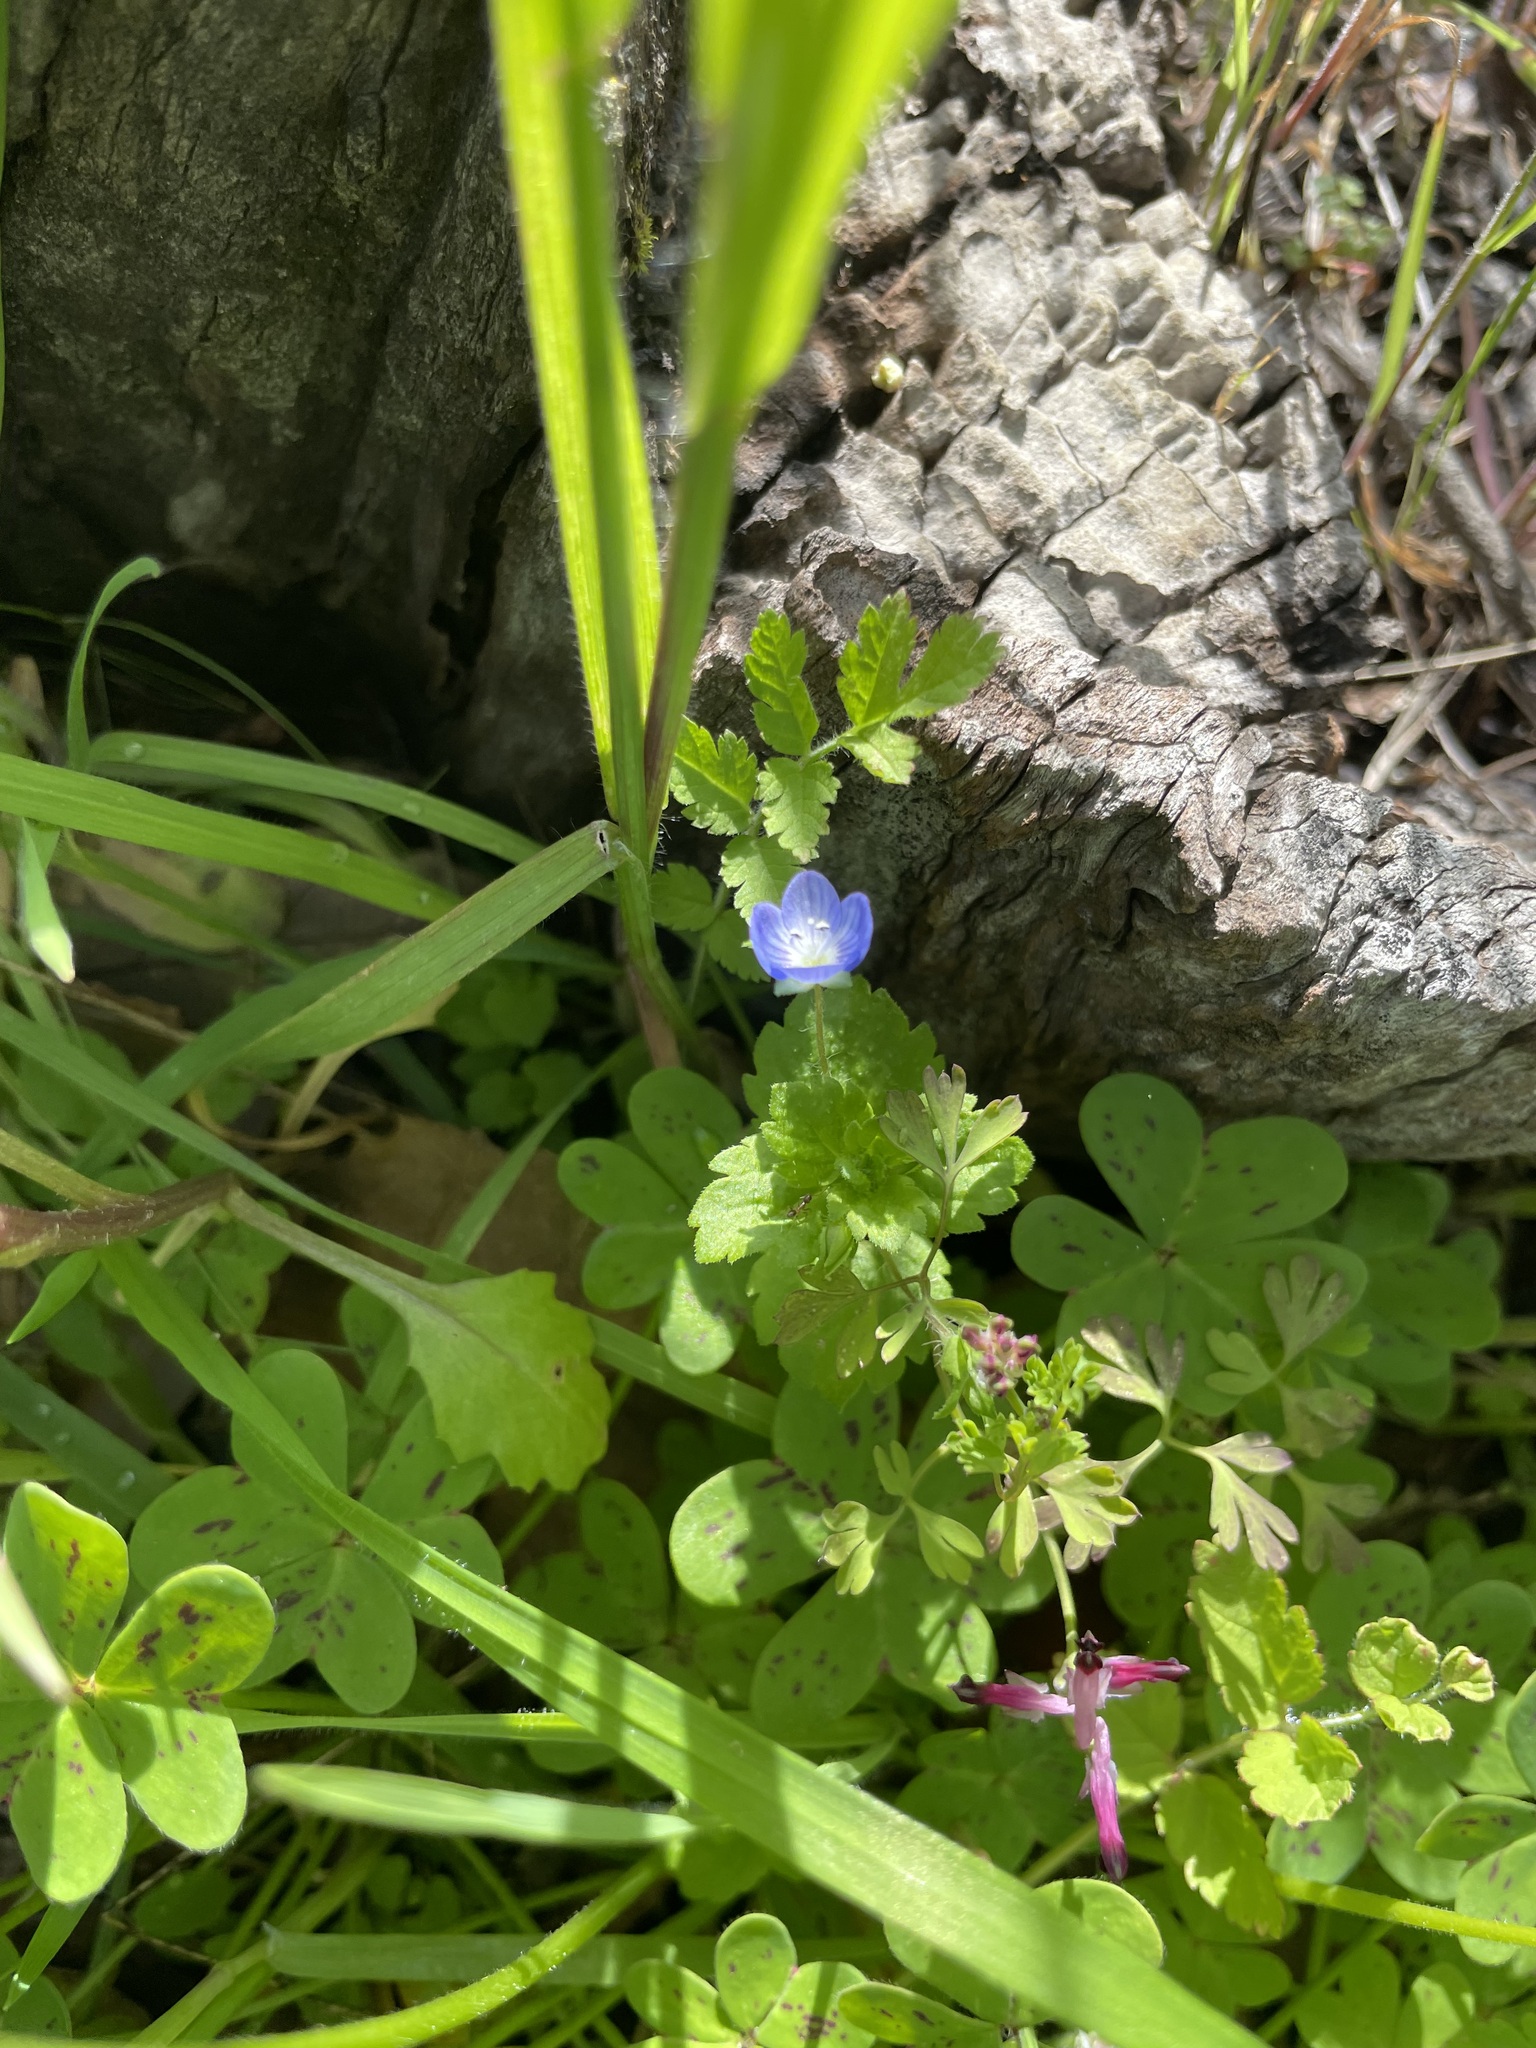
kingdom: Plantae
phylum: Tracheophyta
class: Magnoliopsida
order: Lamiales
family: Plantaginaceae
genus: Veronica
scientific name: Veronica persica
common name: Common field-speedwell
